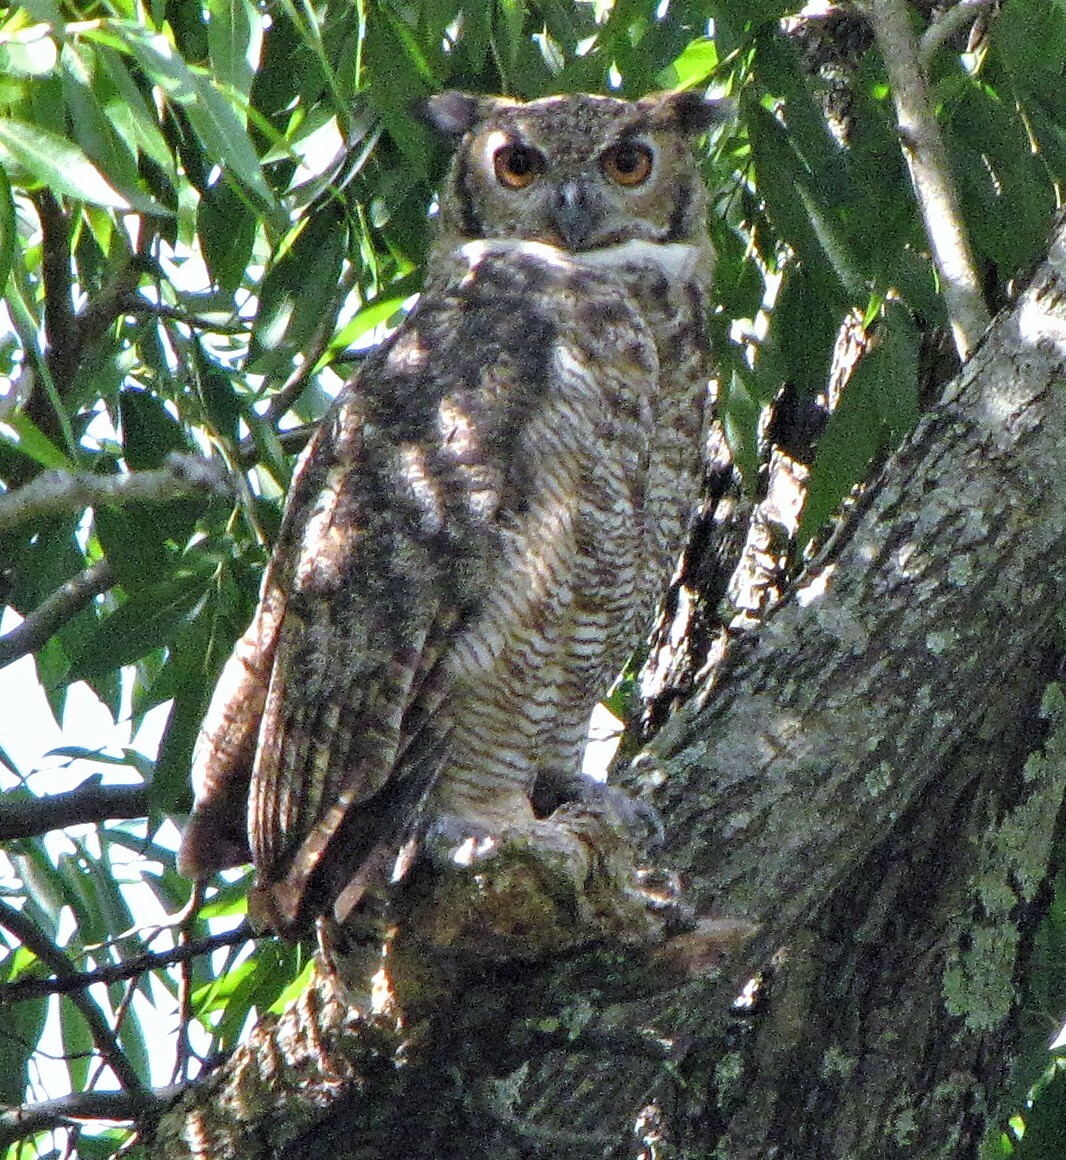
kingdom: Animalia
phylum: Chordata
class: Aves
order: Strigiformes
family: Strigidae
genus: Bubo
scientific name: Bubo virginianus
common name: Great horned owl
